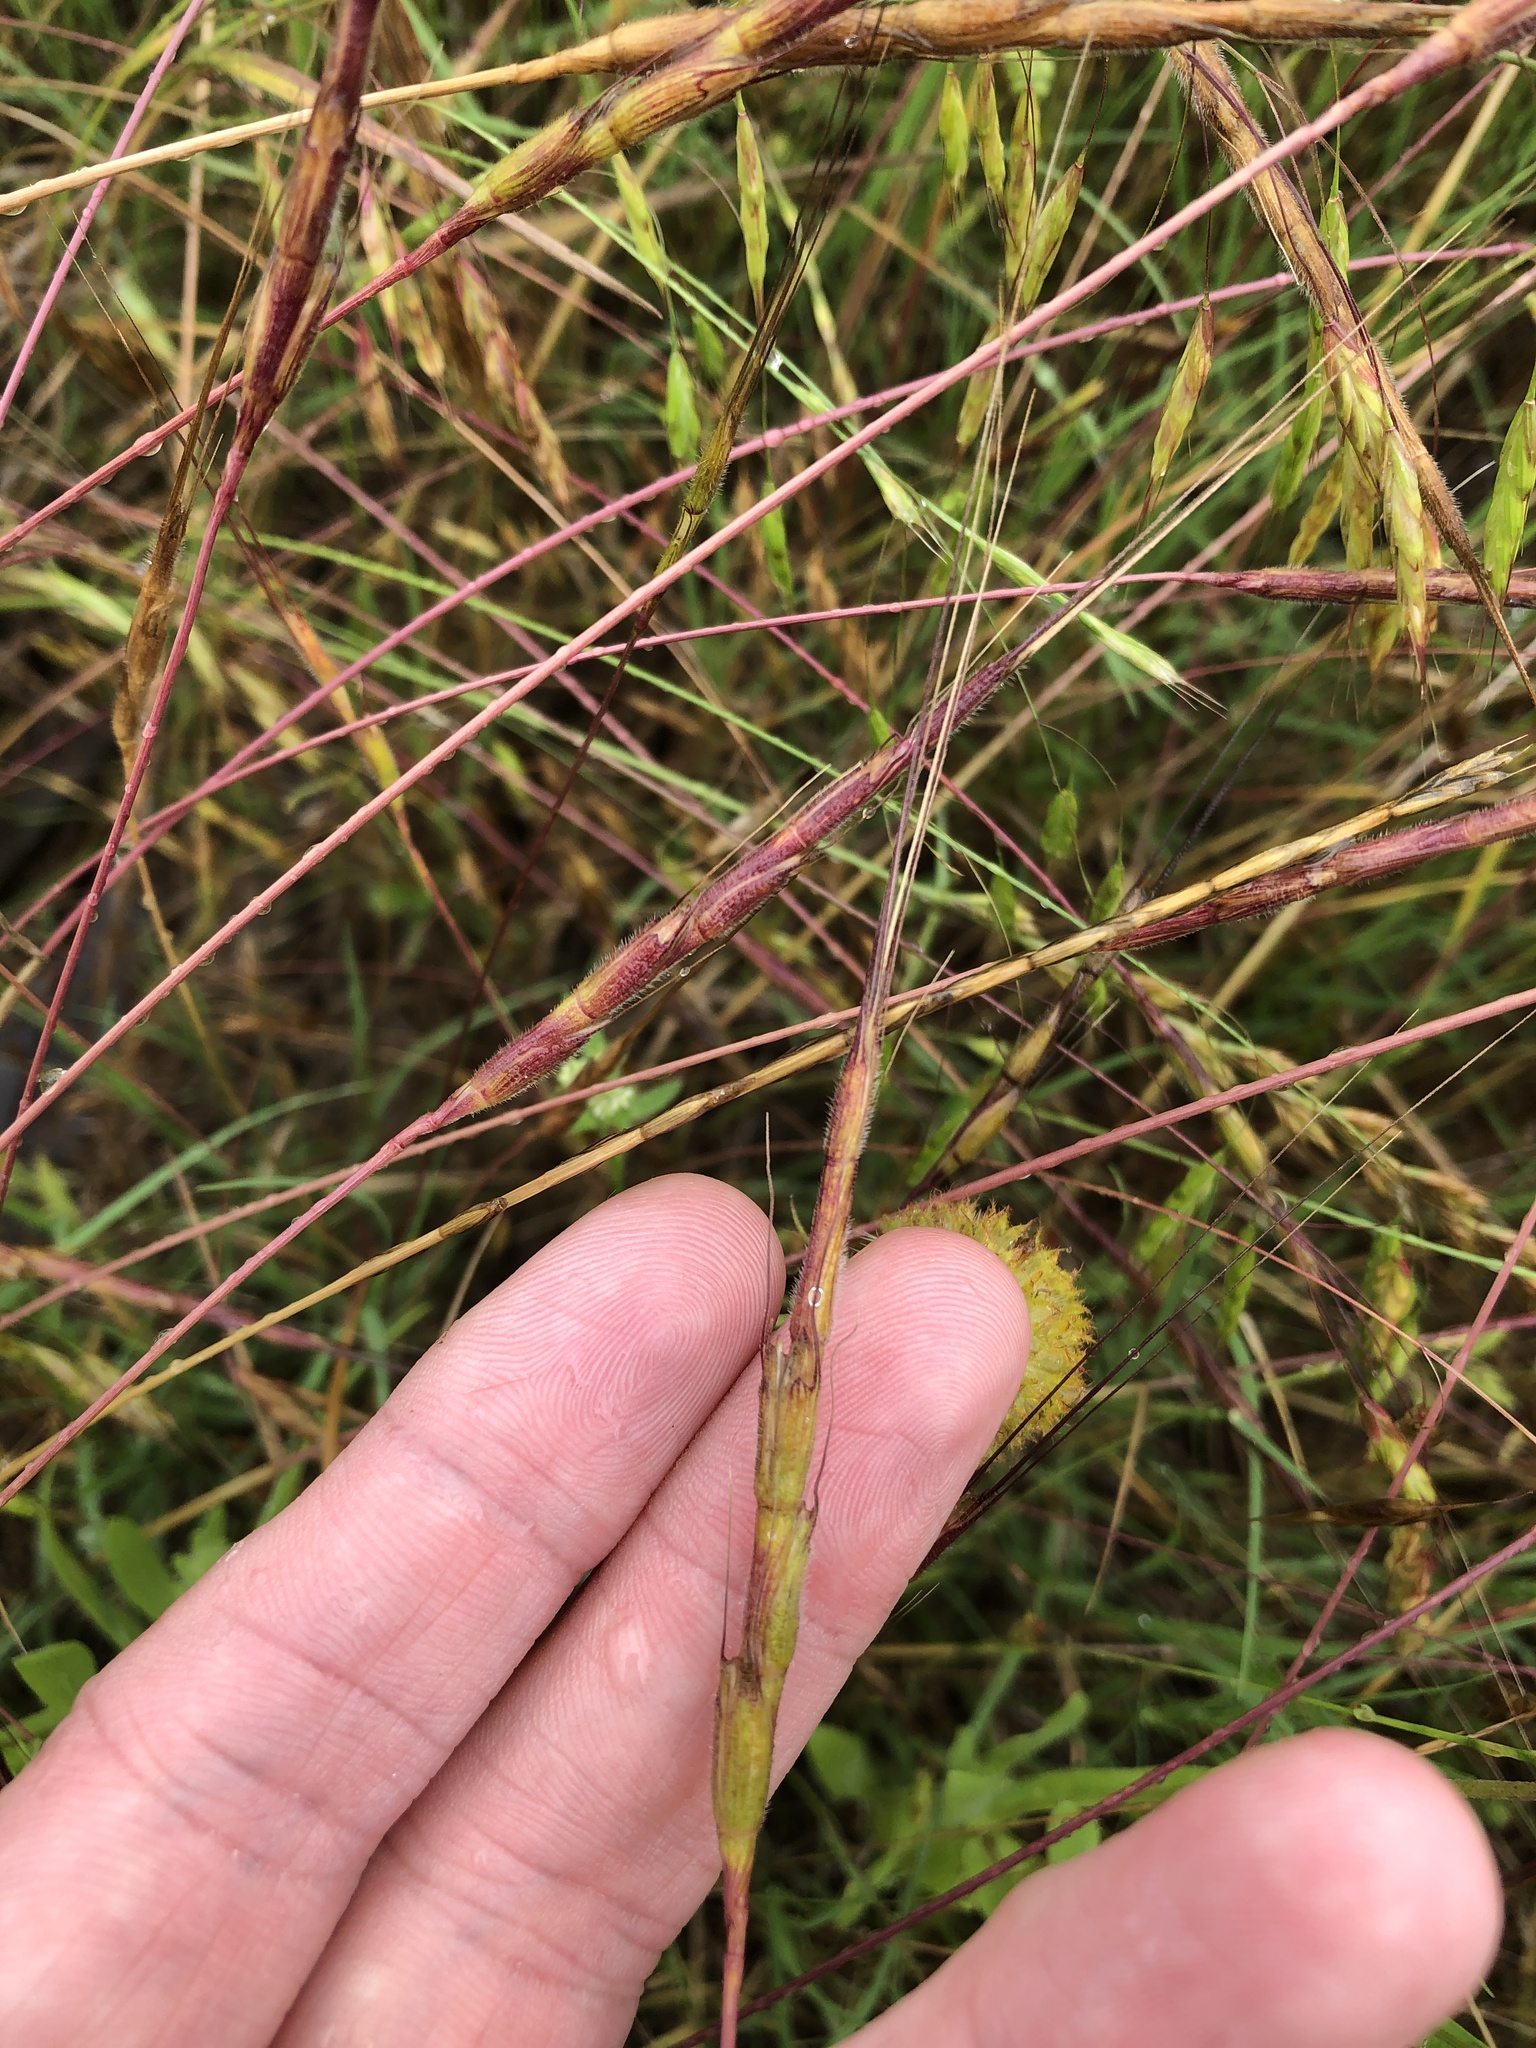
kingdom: Plantae
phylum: Tracheophyta
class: Liliopsida
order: Poales
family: Poaceae
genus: Aegilops
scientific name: Aegilops cylindrica
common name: Jointed goatgrass
